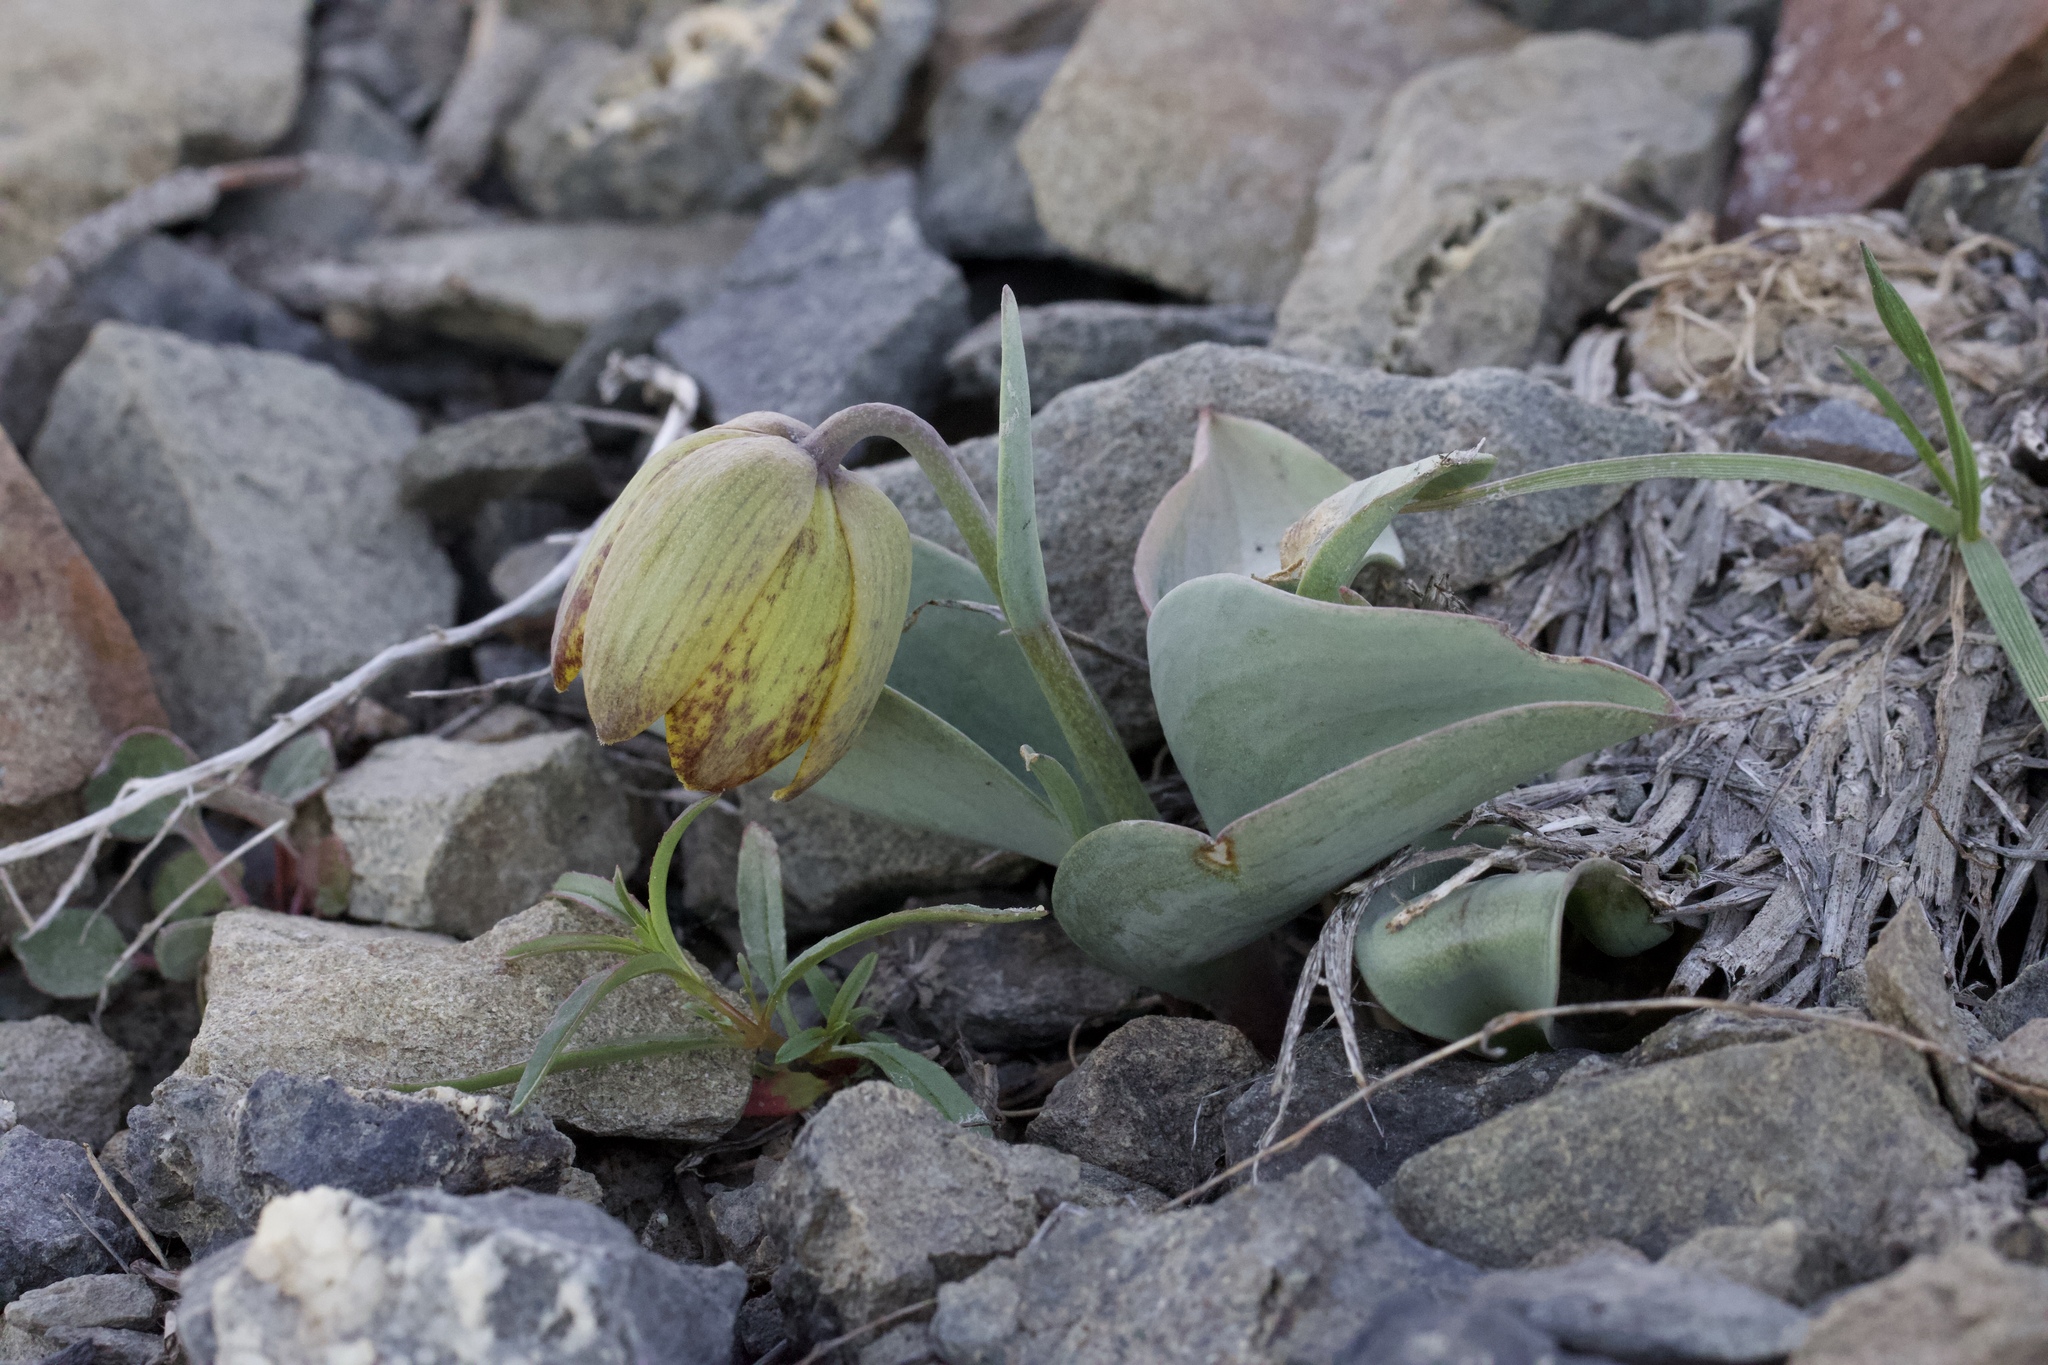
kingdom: Plantae
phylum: Tracheophyta
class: Liliopsida
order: Liliales
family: Liliaceae
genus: Fritillaria
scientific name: Fritillaria glauca
